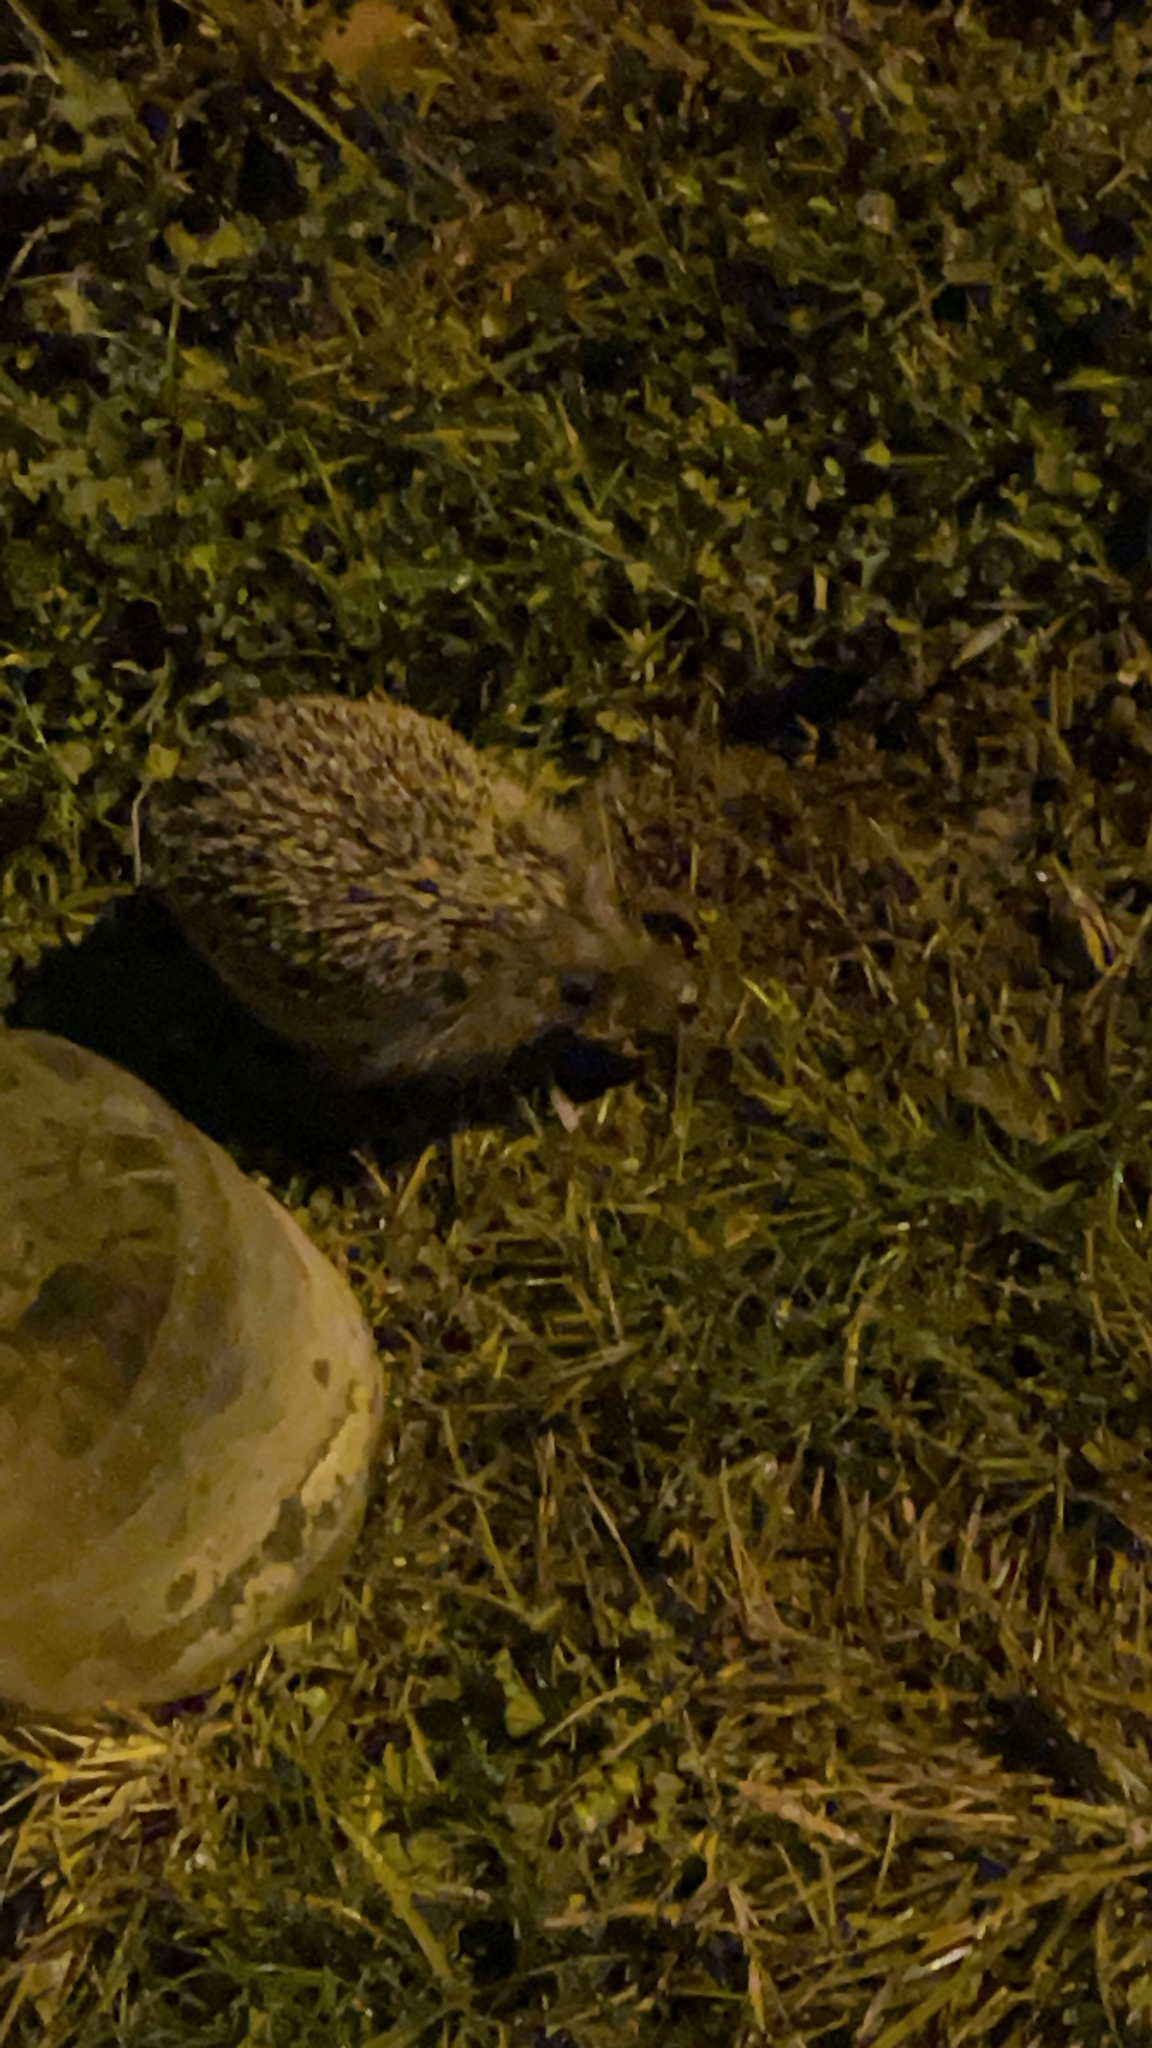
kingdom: Animalia
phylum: Chordata
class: Mammalia
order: Erinaceomorpha
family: Erinaceidae
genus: Erinaceus
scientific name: Erinaceus concolor
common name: Southern white-breasted hedgehog
